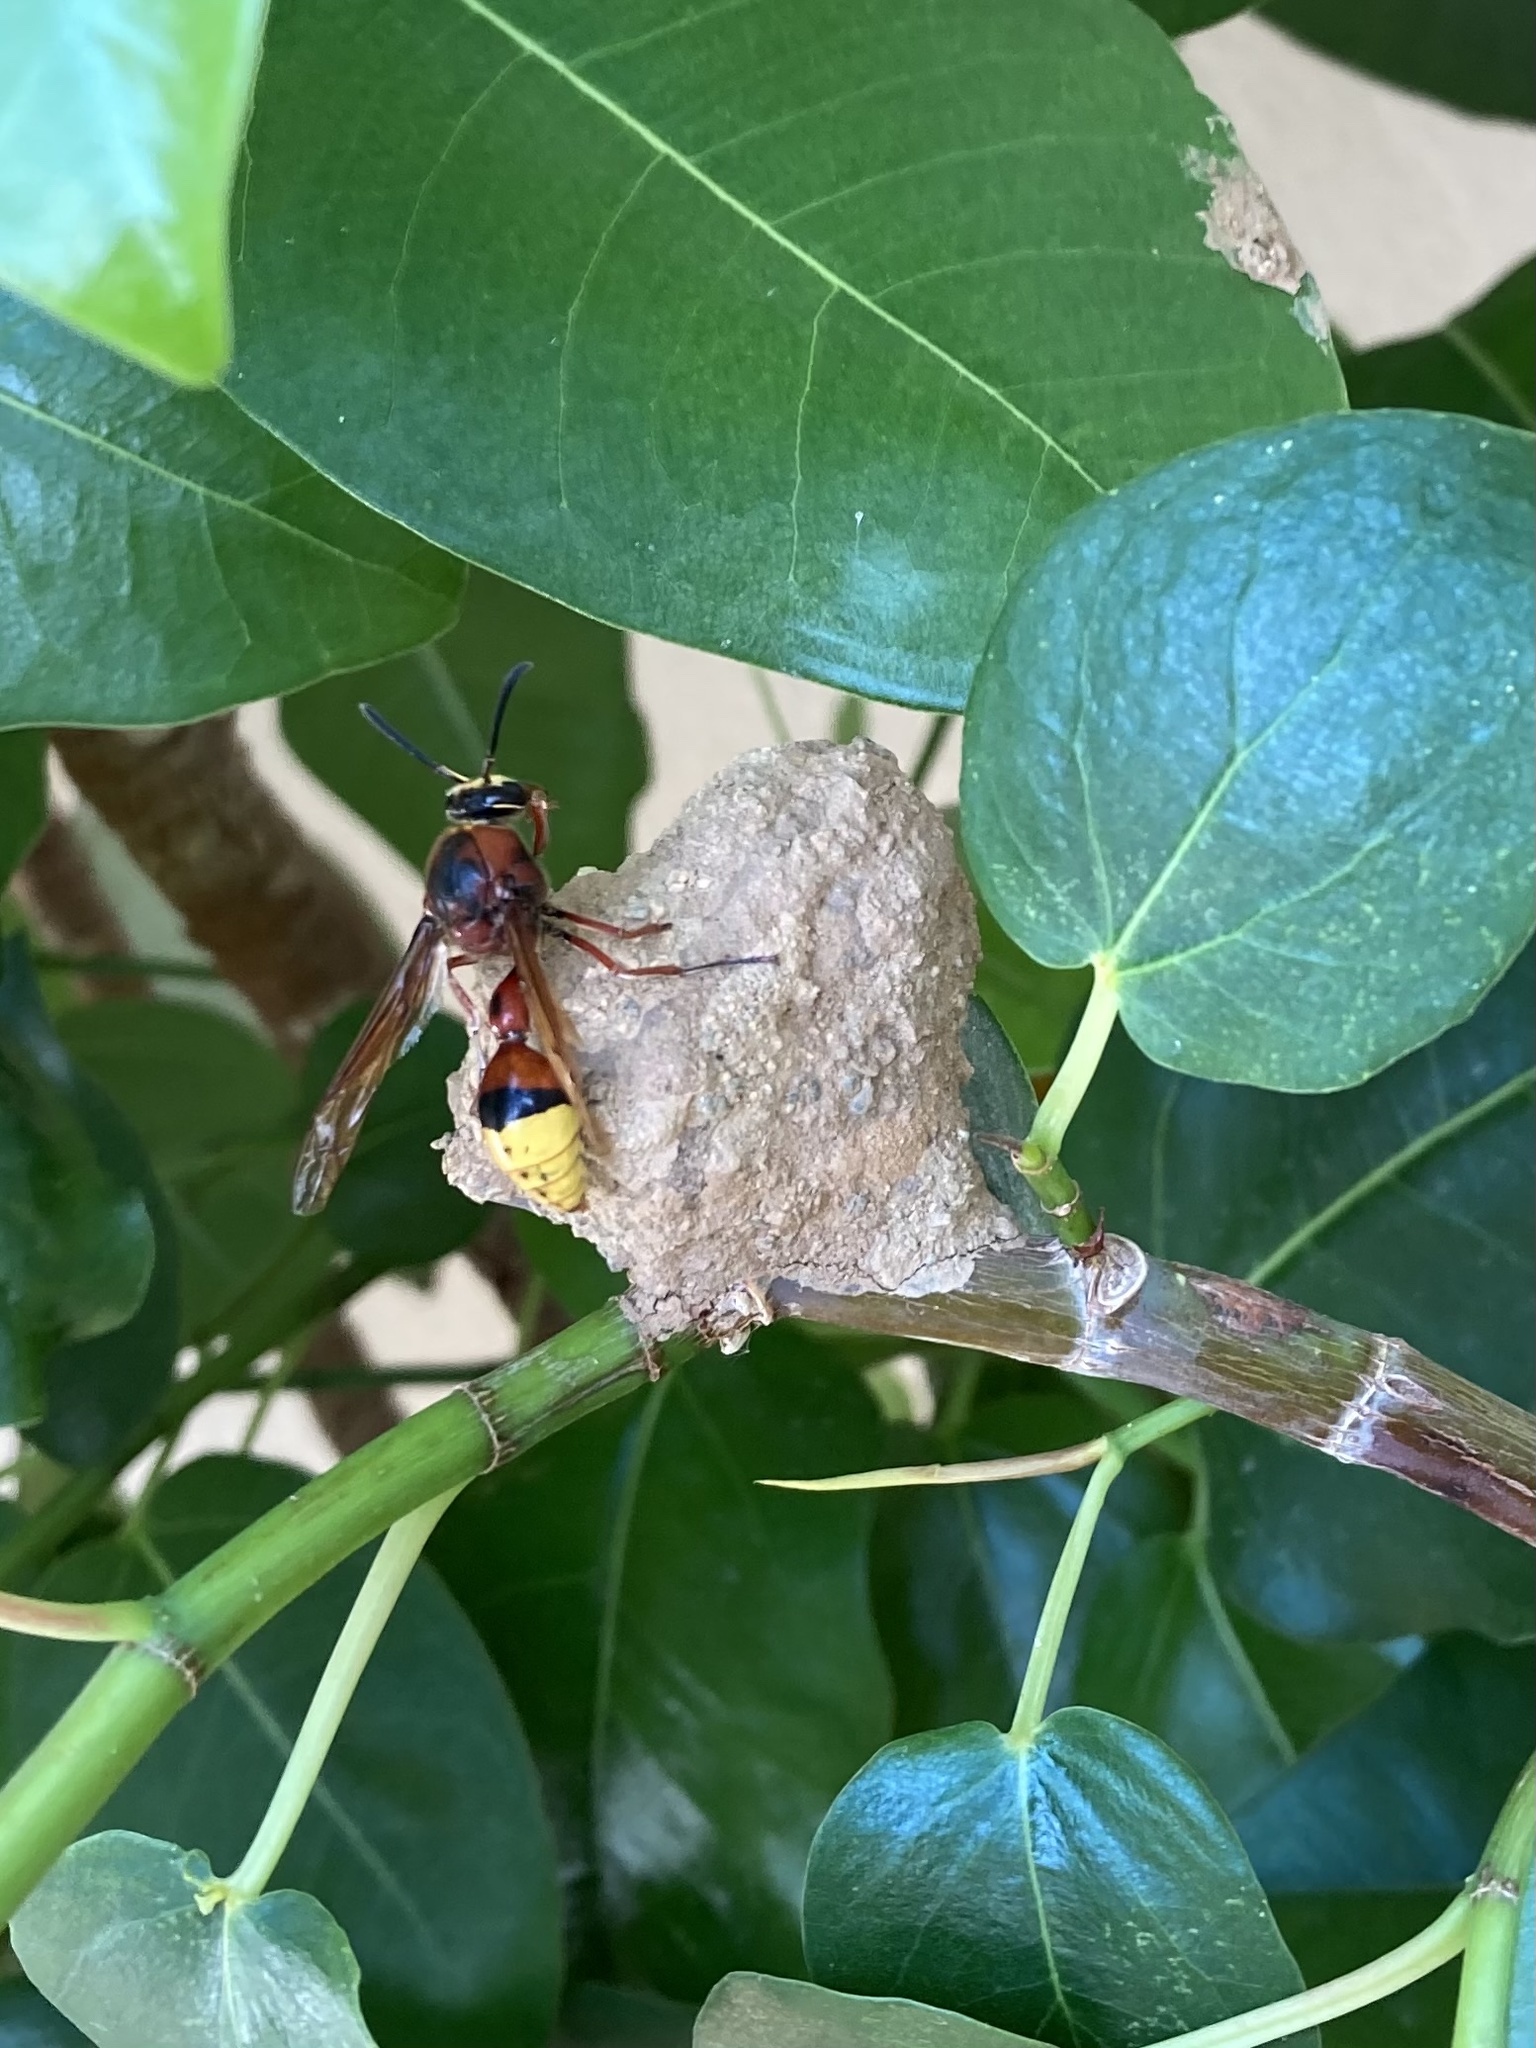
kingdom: Animalia
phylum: Arthropoda
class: Insecta
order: Hymenoptera
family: Eumenidae
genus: Delta
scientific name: Delta unguiculatum
